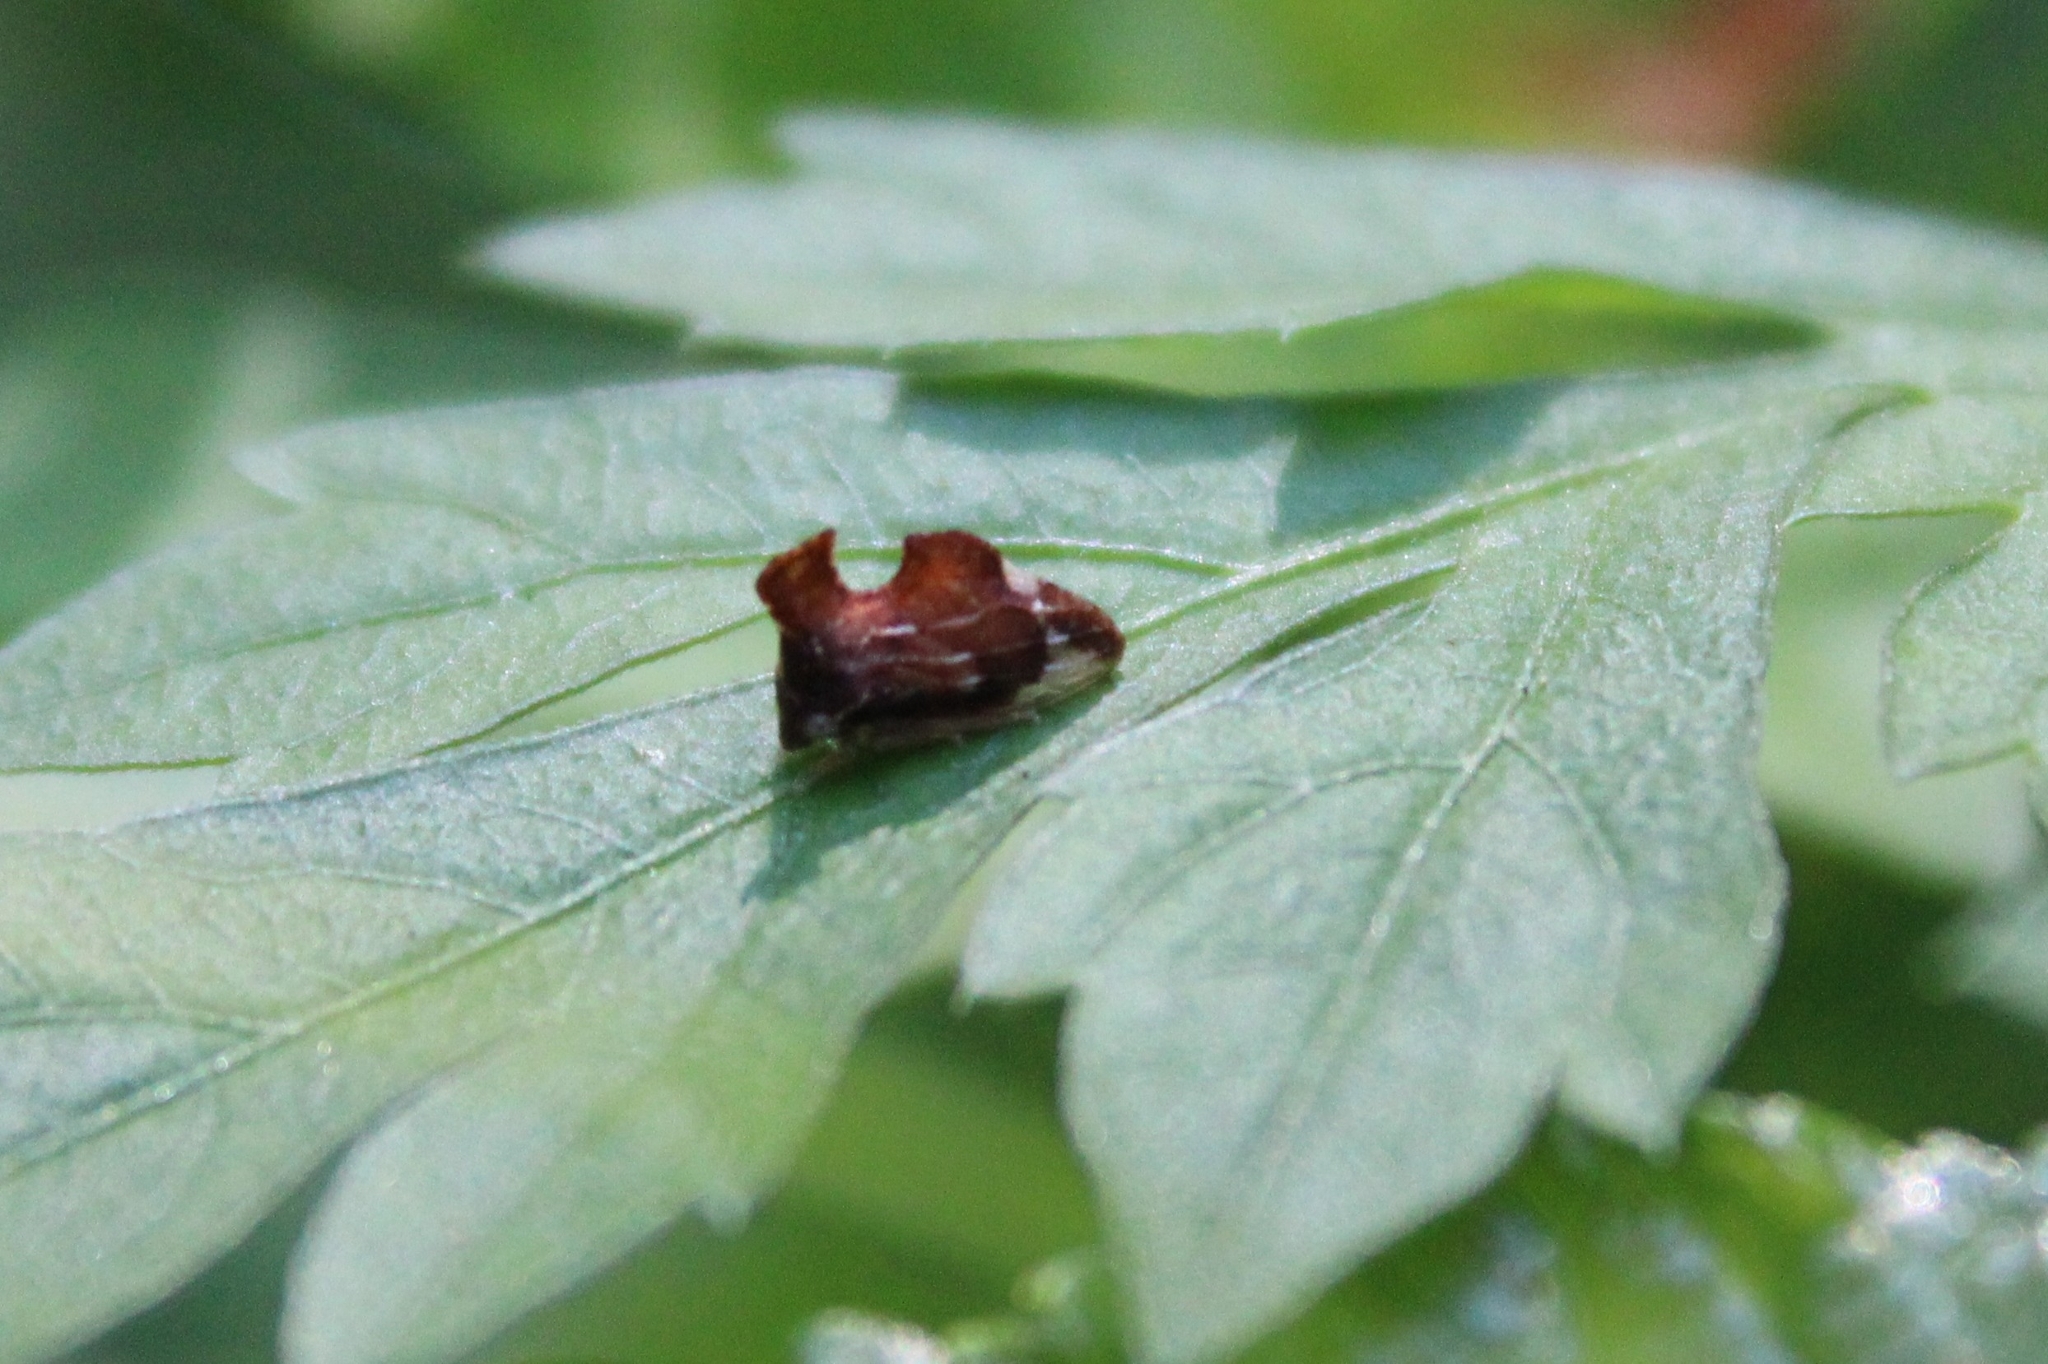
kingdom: Animalia
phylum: Arthropoda
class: Insecta
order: Hemiptera
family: Membracidae
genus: Entylia
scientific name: Entylia carinata
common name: Keeled treehopper
